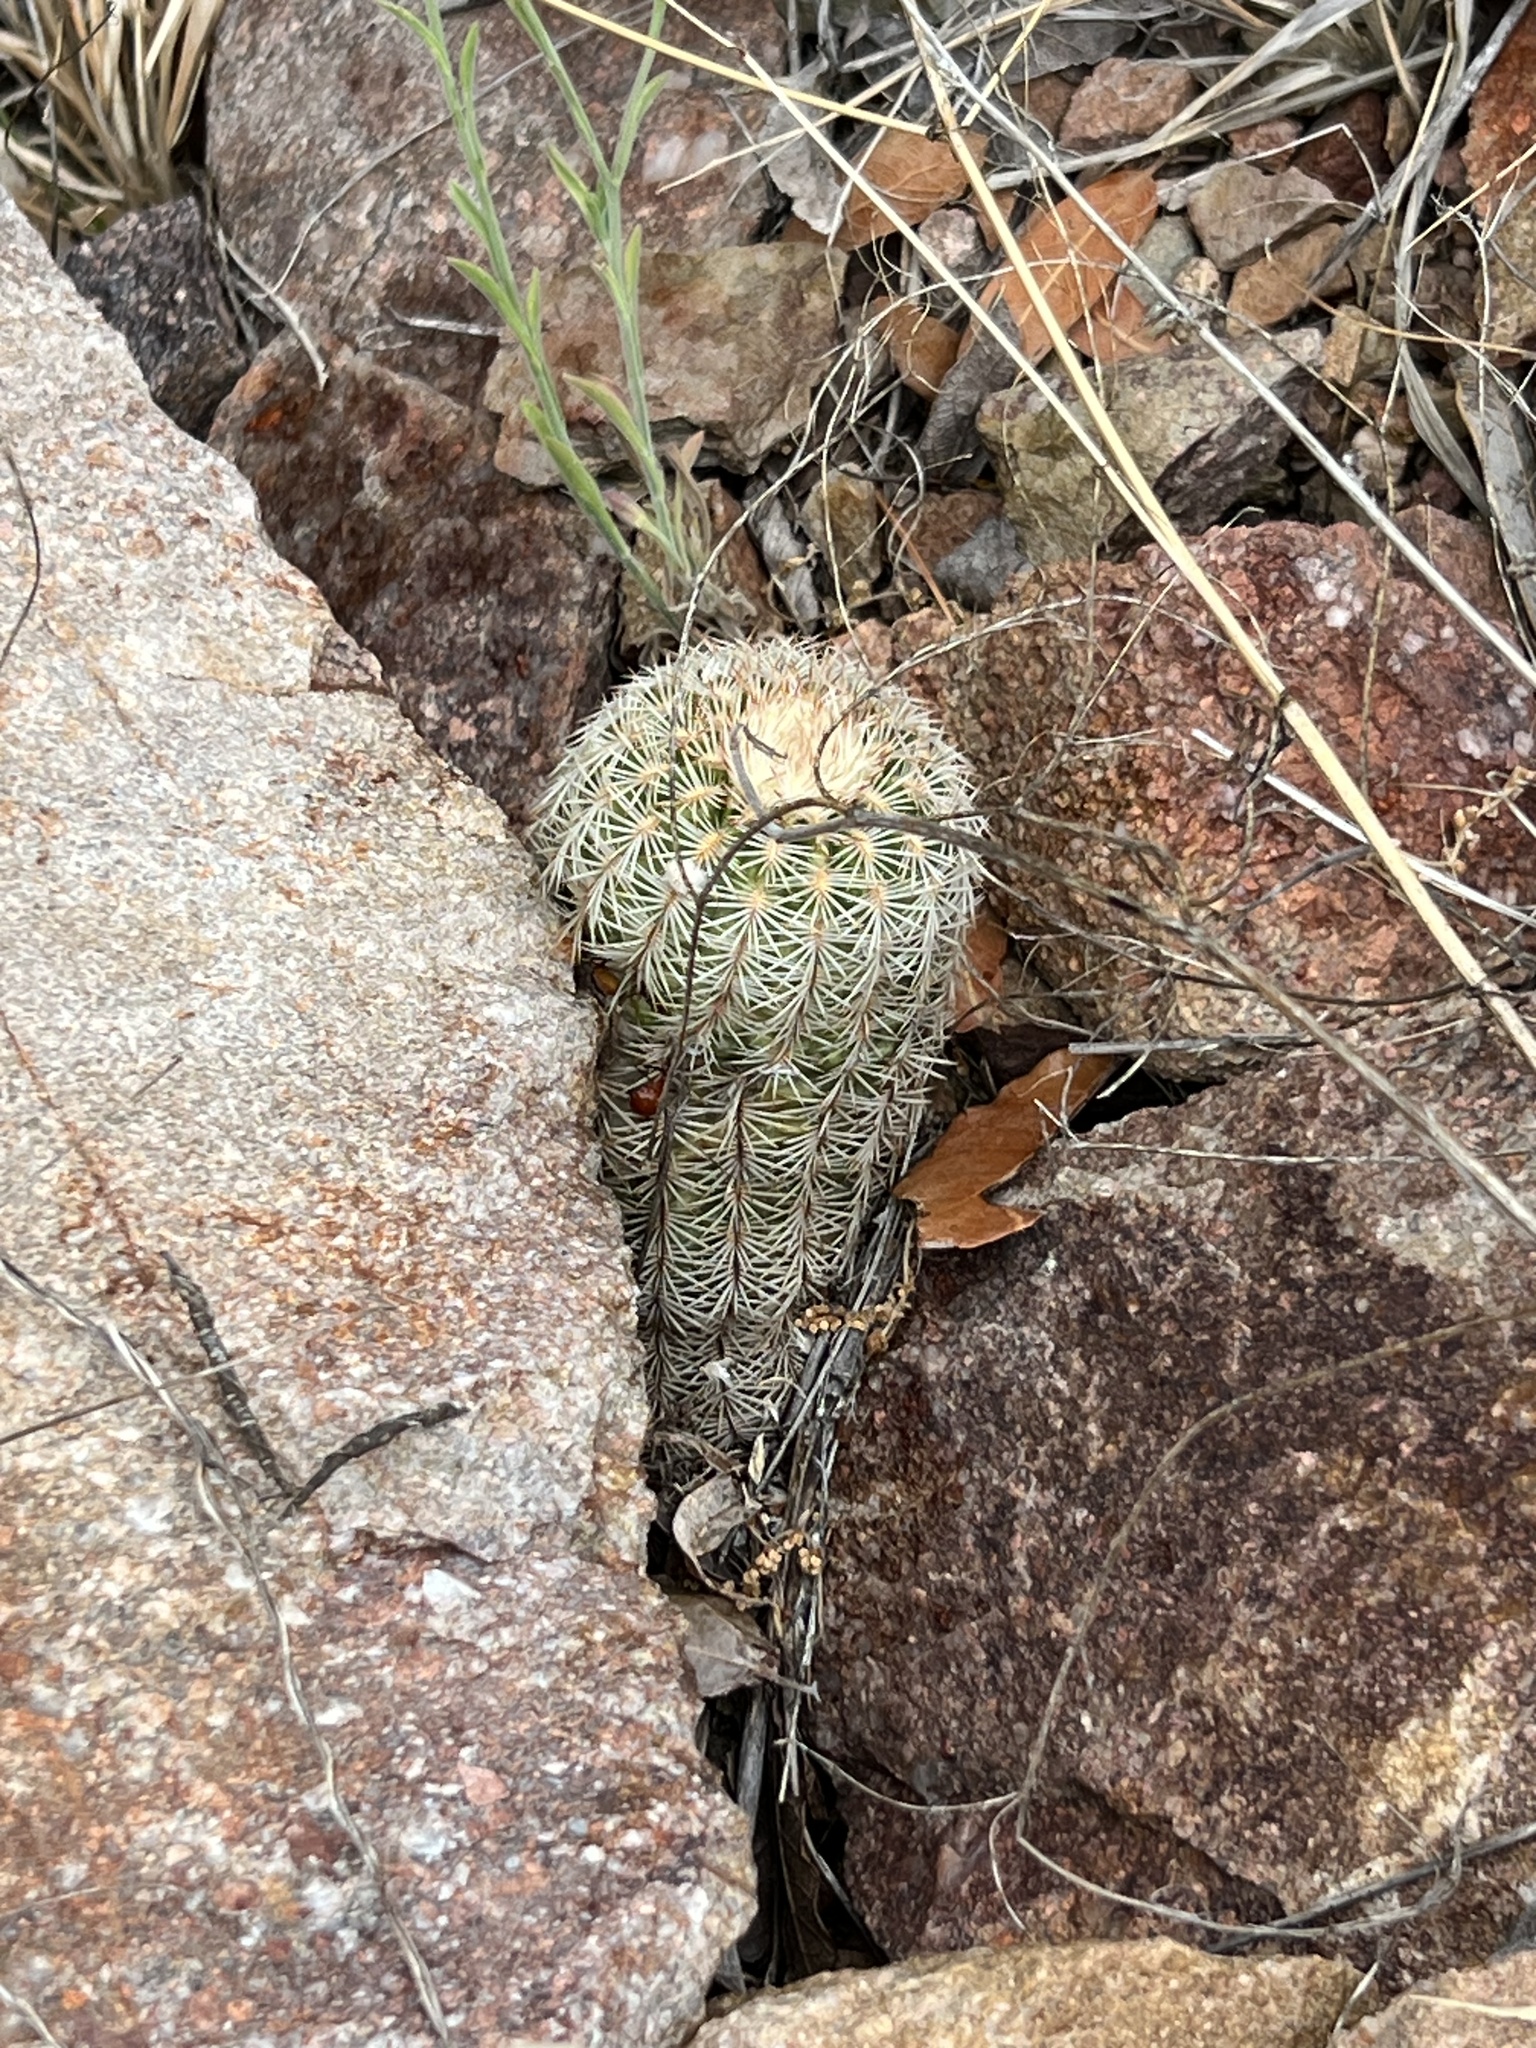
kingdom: Plantae
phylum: Tracheophyta
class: Magnoliopsida
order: Caryophyllales
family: Cactaceae
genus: Echinocereus
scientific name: Echinocereus rigidissimus
